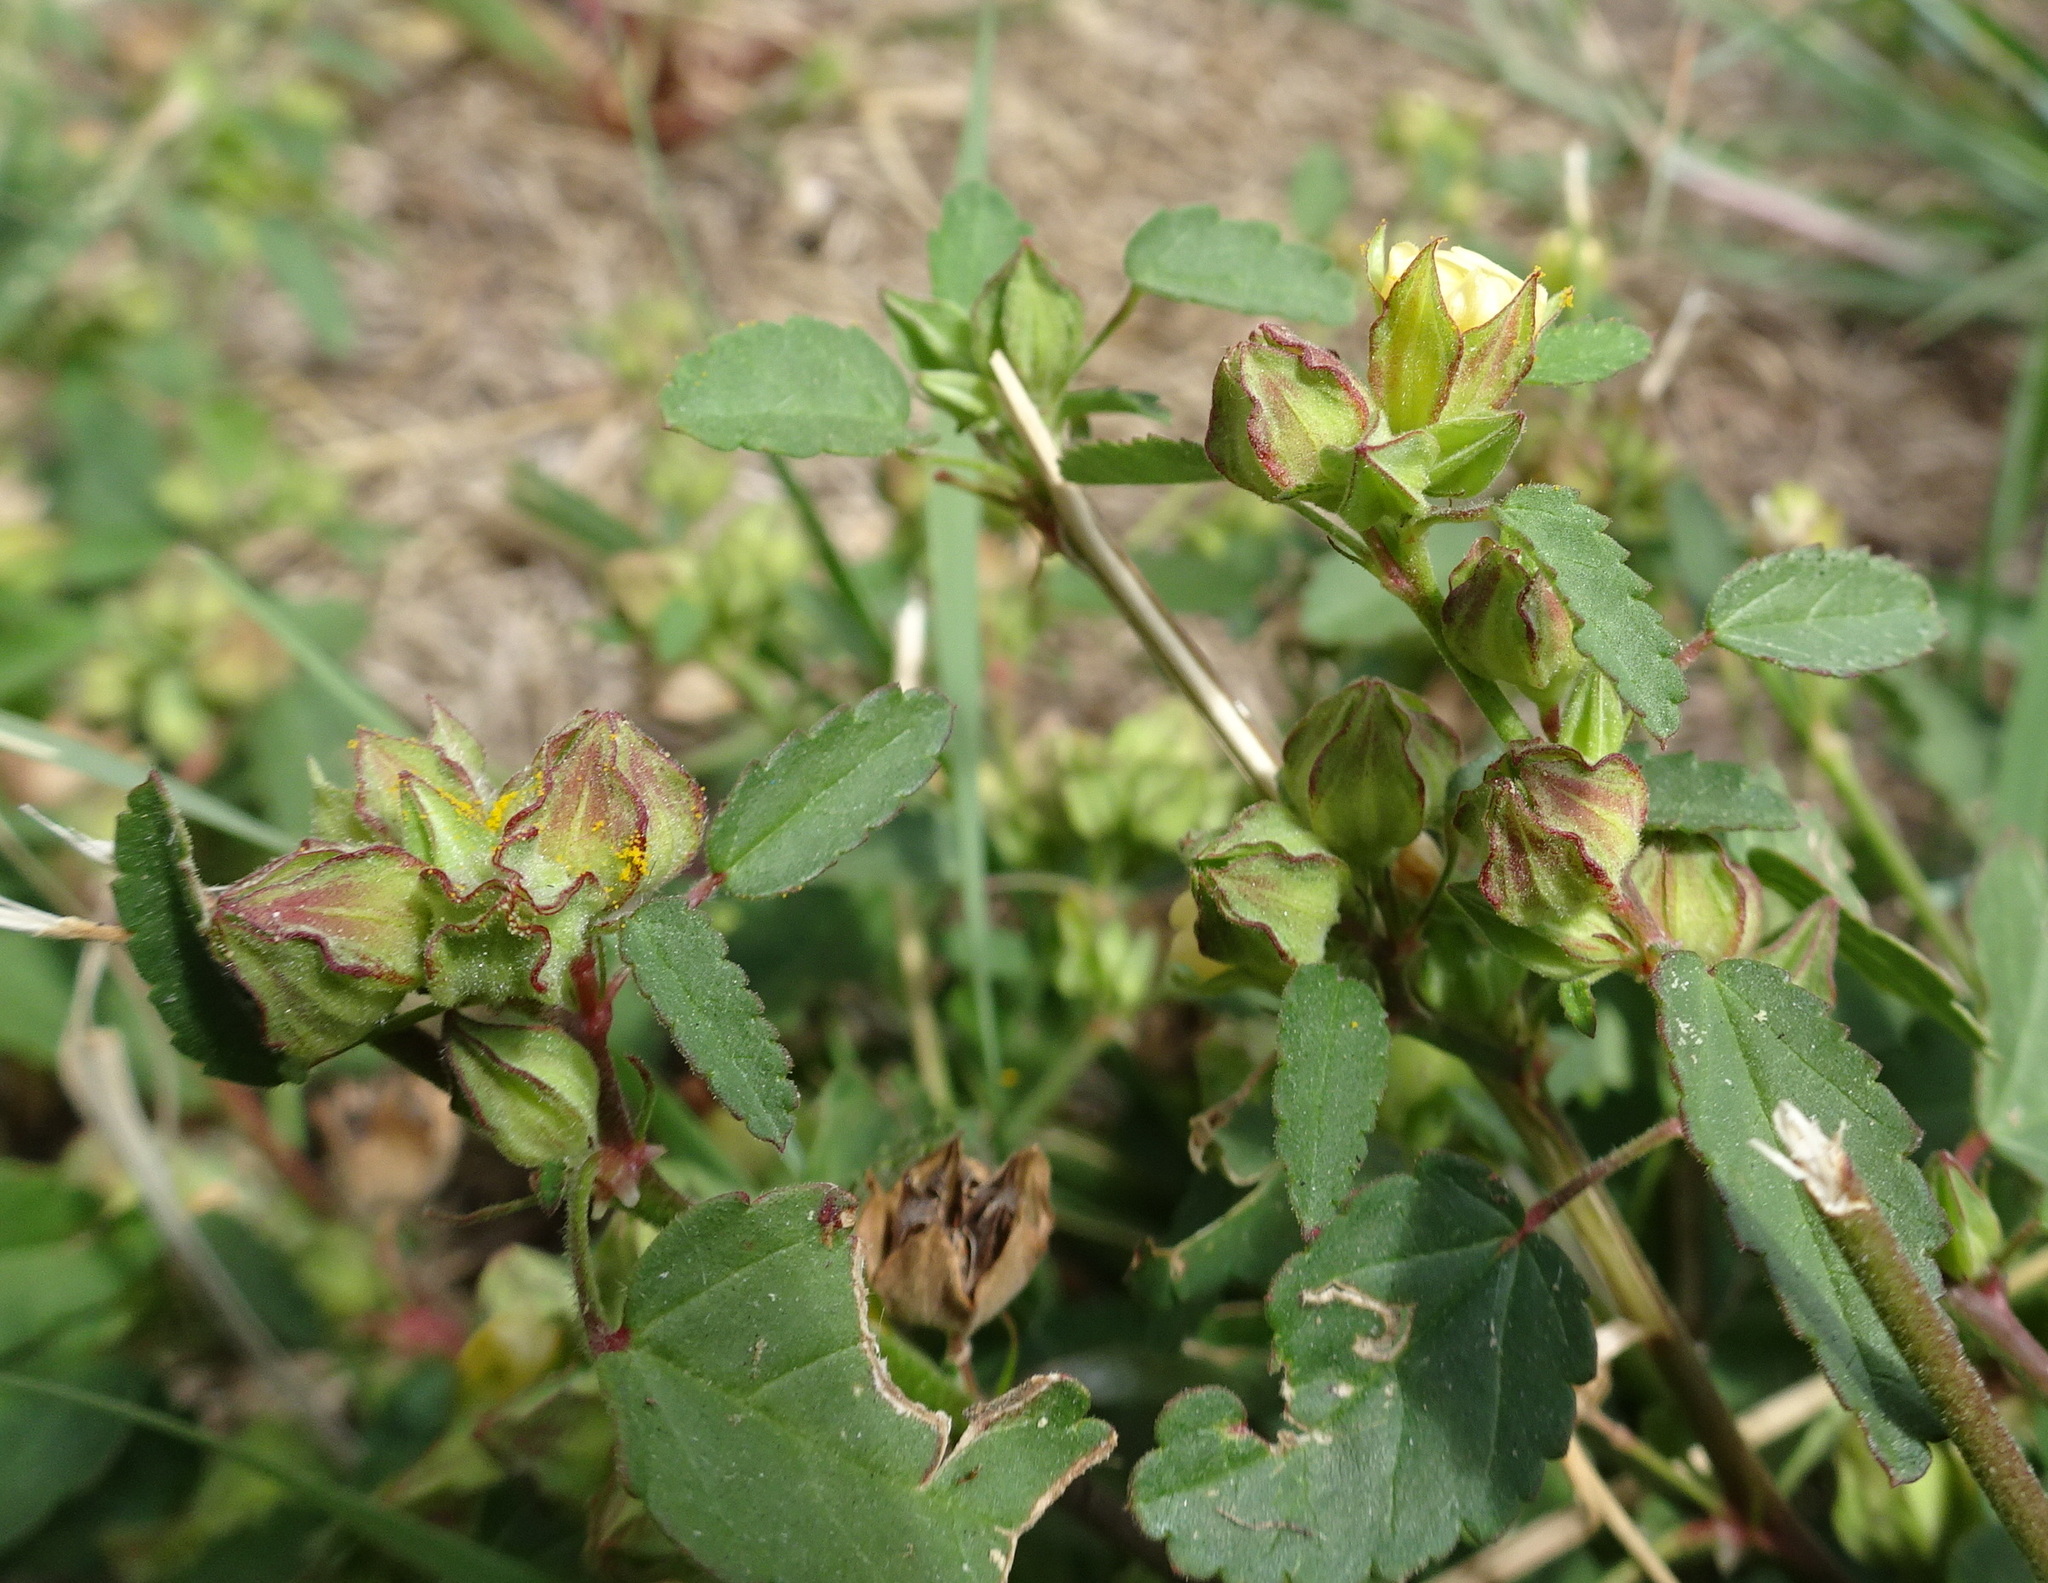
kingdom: Plantae
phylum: Tracheophyta
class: Magnoliopsida
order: Malvales
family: Malvaceae
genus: Sida
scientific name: Sida spinosa
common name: Prickly fanpetals
